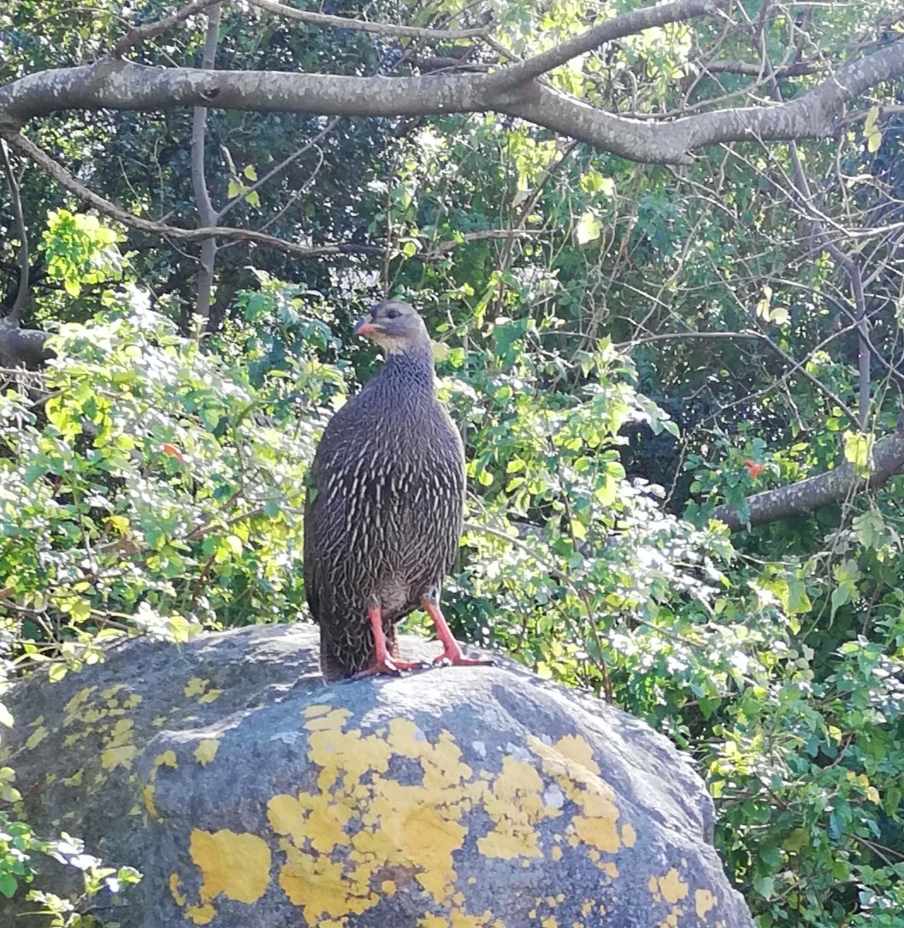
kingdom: Animalia
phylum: Chordata
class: Aves
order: Galliformes
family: Phasianidae
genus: Pternistis
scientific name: Pternistis capensis
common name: Cape spurfowl
